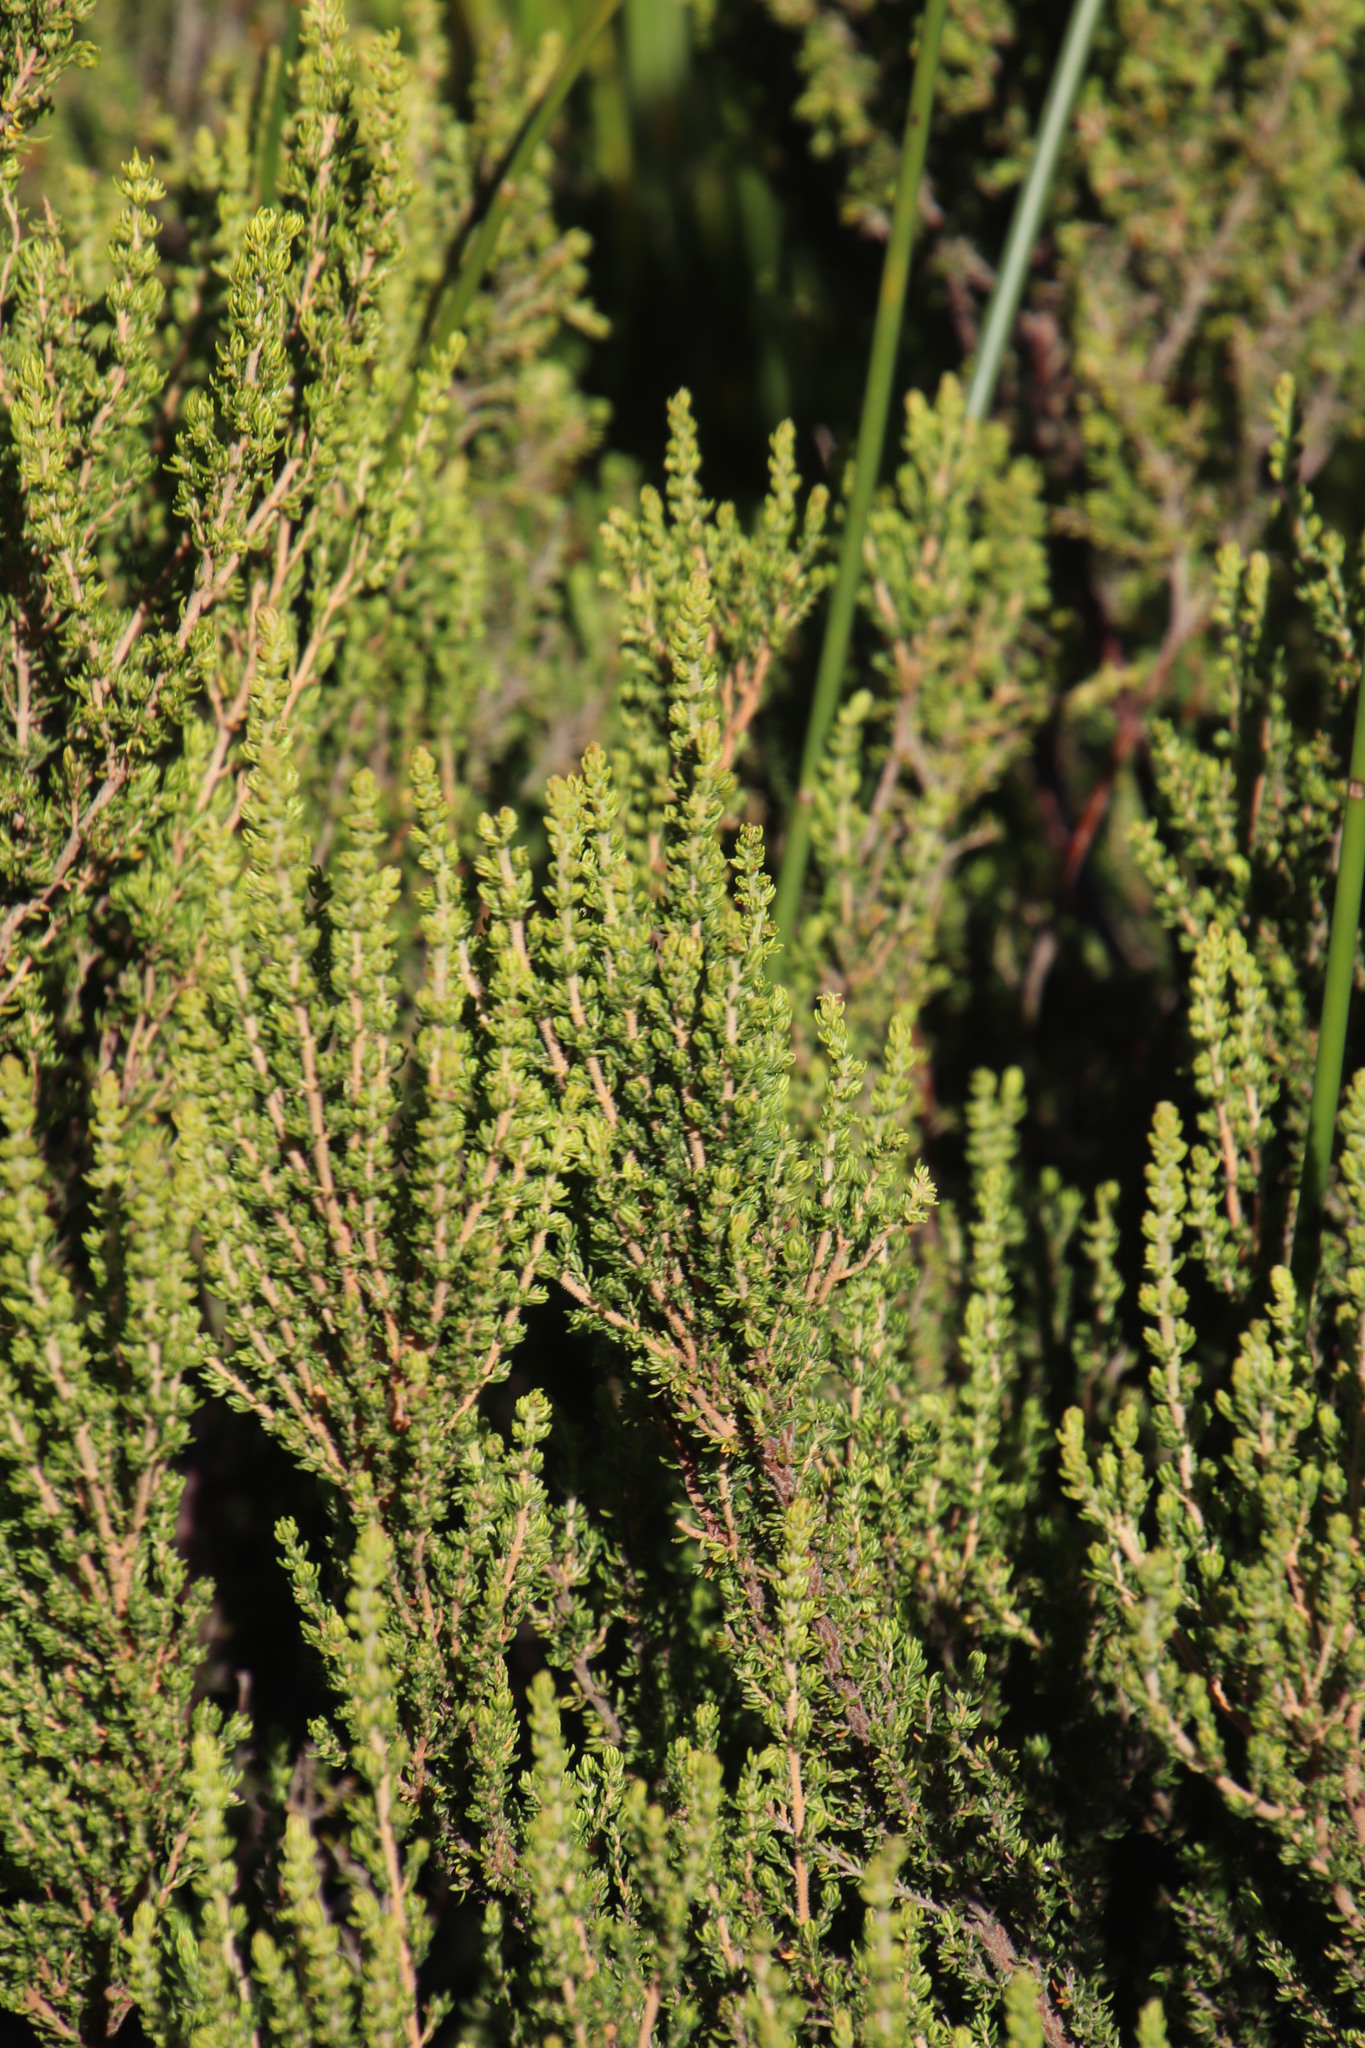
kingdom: Plantae
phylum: Tracheophyta
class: Magnoliopsida
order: Ericales
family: Ericaceae
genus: Erica
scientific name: Erica hispidula
